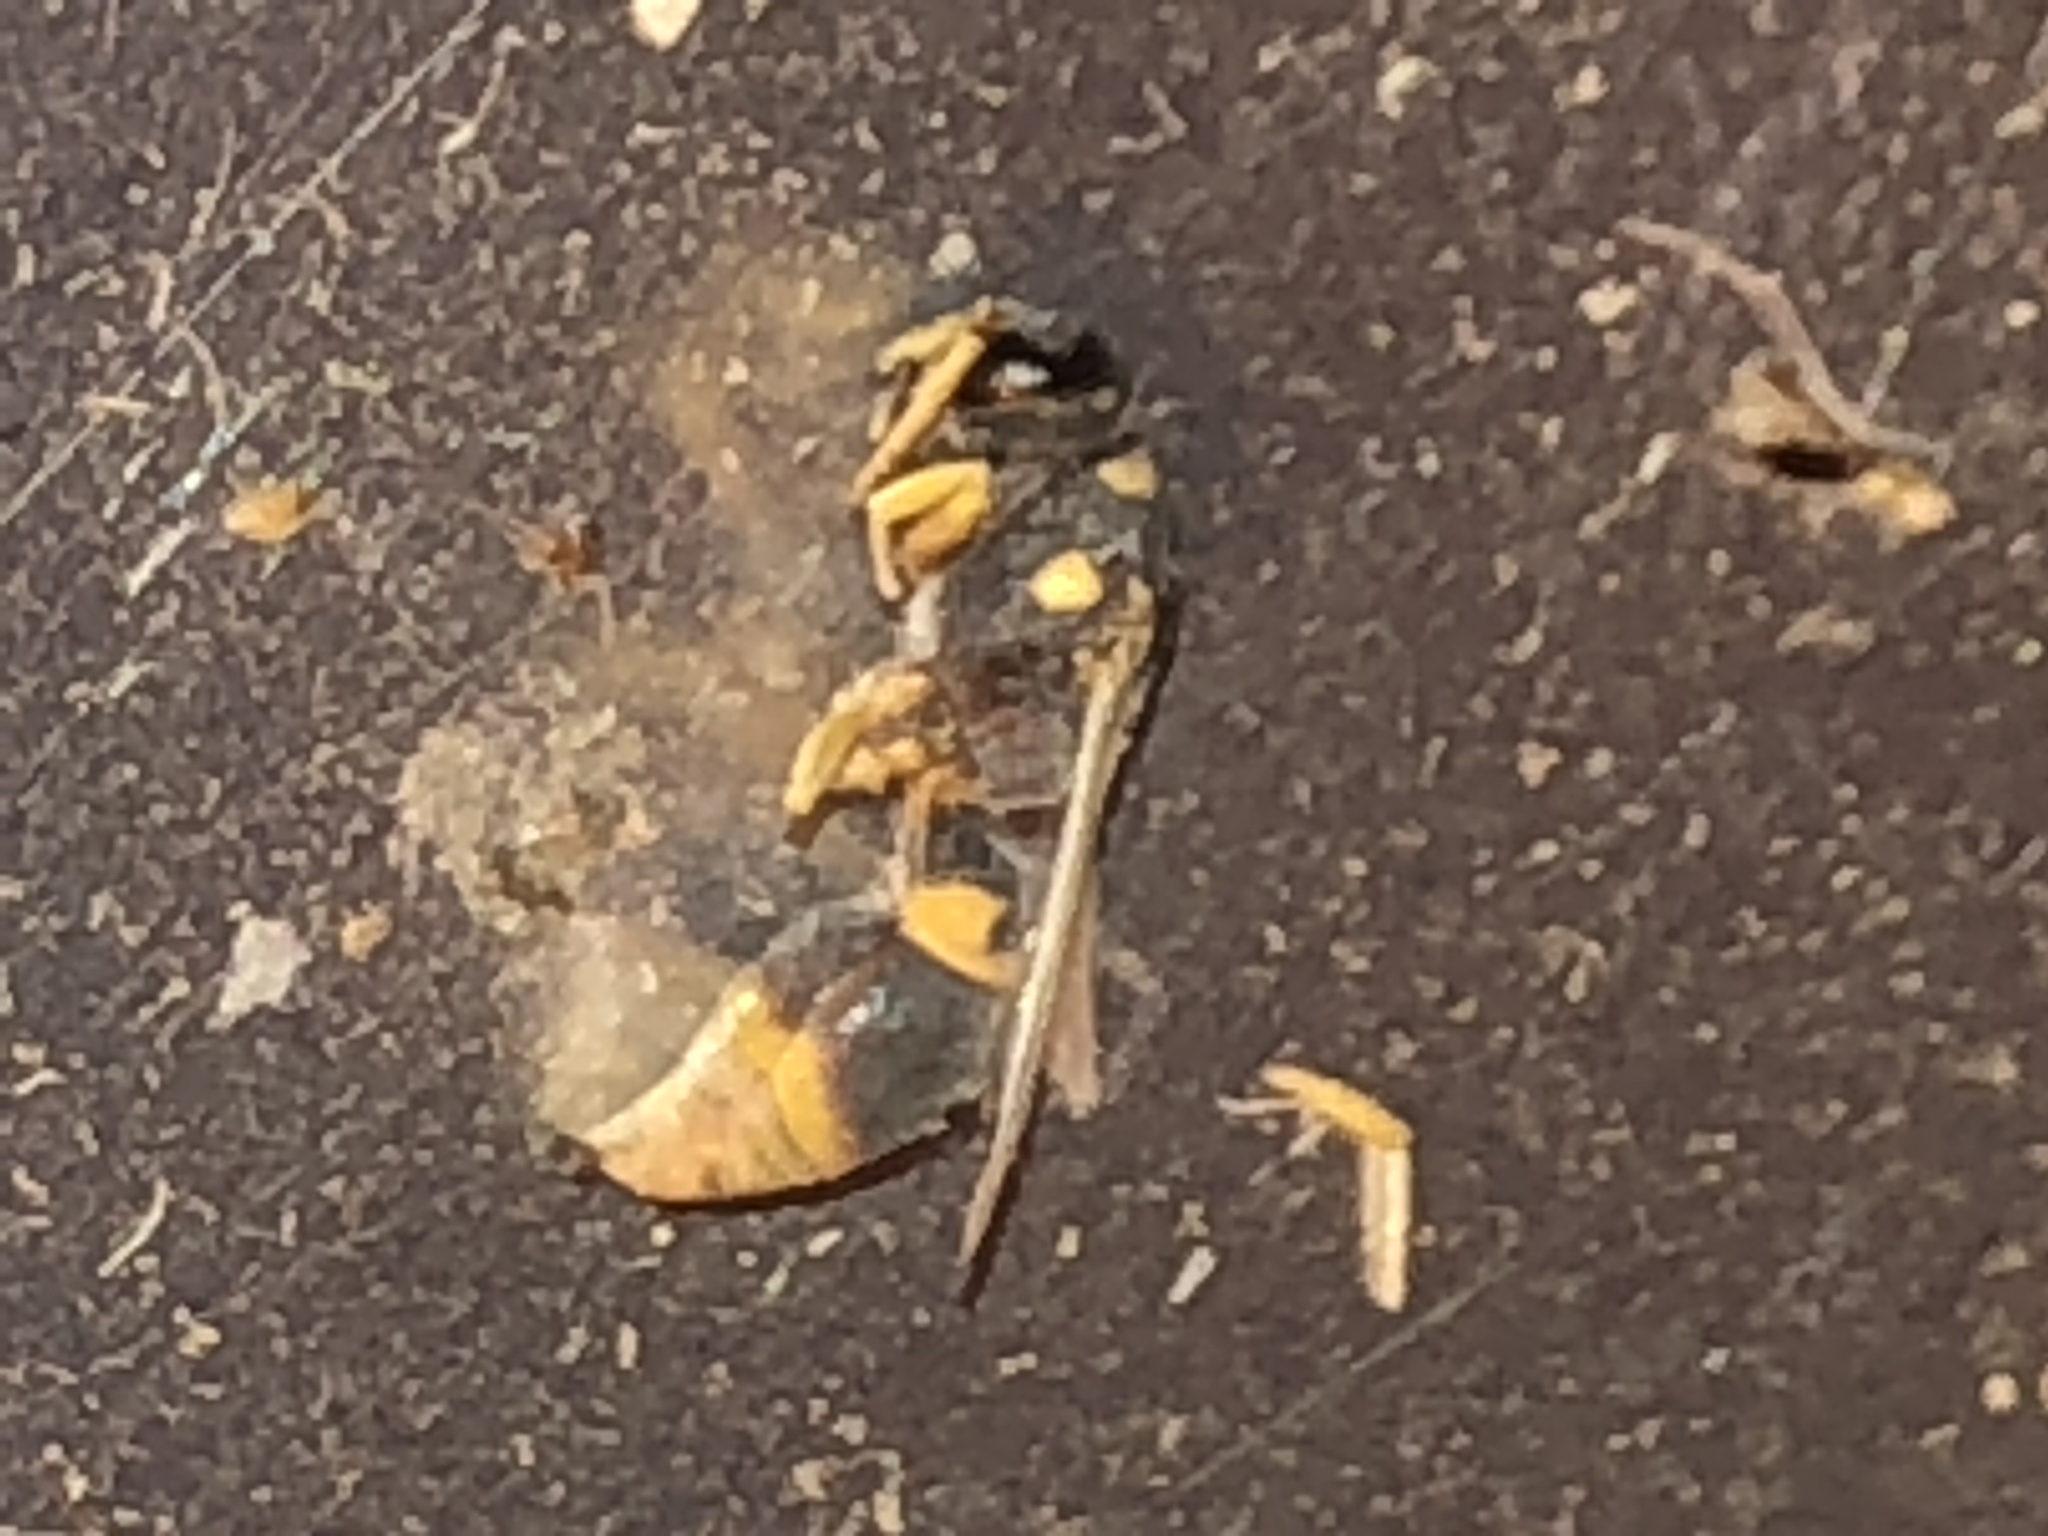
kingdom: Animalia
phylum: Arthropoda
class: Insecta
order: Hymenoptera
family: Vespidae
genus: Ancistrocerus
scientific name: Ancistrocerus campestris
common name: Smiling mason wasp
